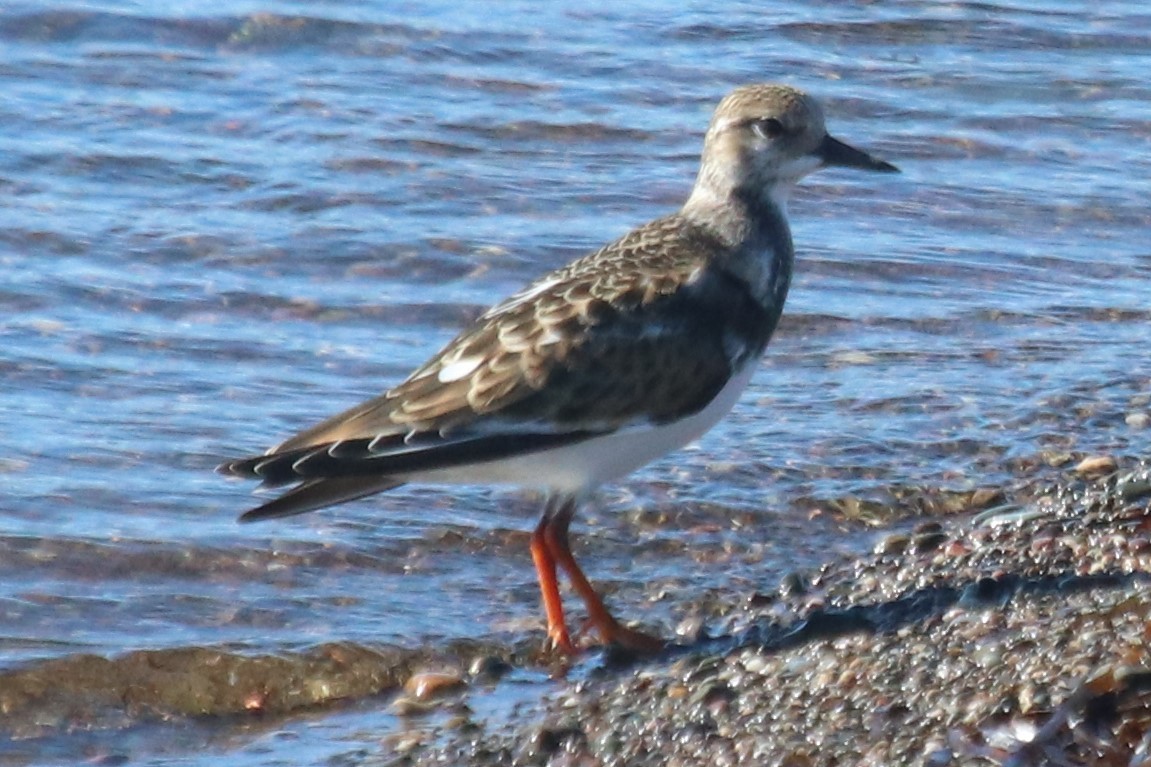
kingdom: Animalia
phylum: Chordata
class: Aves
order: Charadriiformes
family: Scolopacidae
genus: Arenaria
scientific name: Arenaria interpres
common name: Ruddy turnstone
